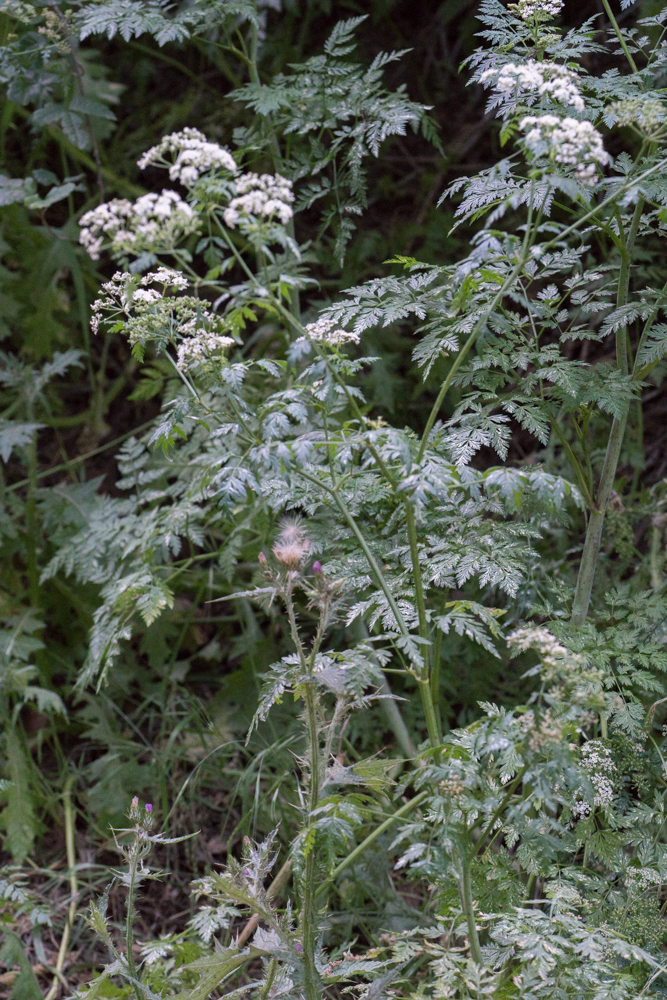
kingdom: Plantae
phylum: Tracheophyta
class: Magnoliopsida
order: Apiales
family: Apiaceae
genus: Conium
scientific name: Conium maculatum
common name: Hemlock
